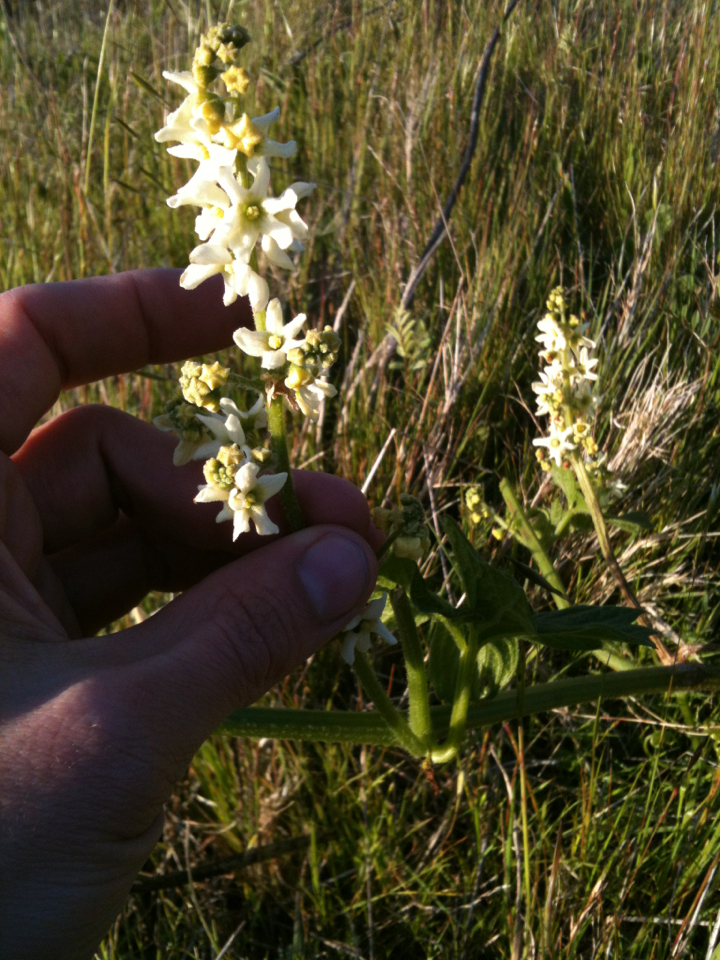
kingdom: Plantae
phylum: Tracheophyta
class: Magnoliopsida
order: Cucurbitales
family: Cucurbitaceae
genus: Marah
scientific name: Marah oregana
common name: Coastal manroot
